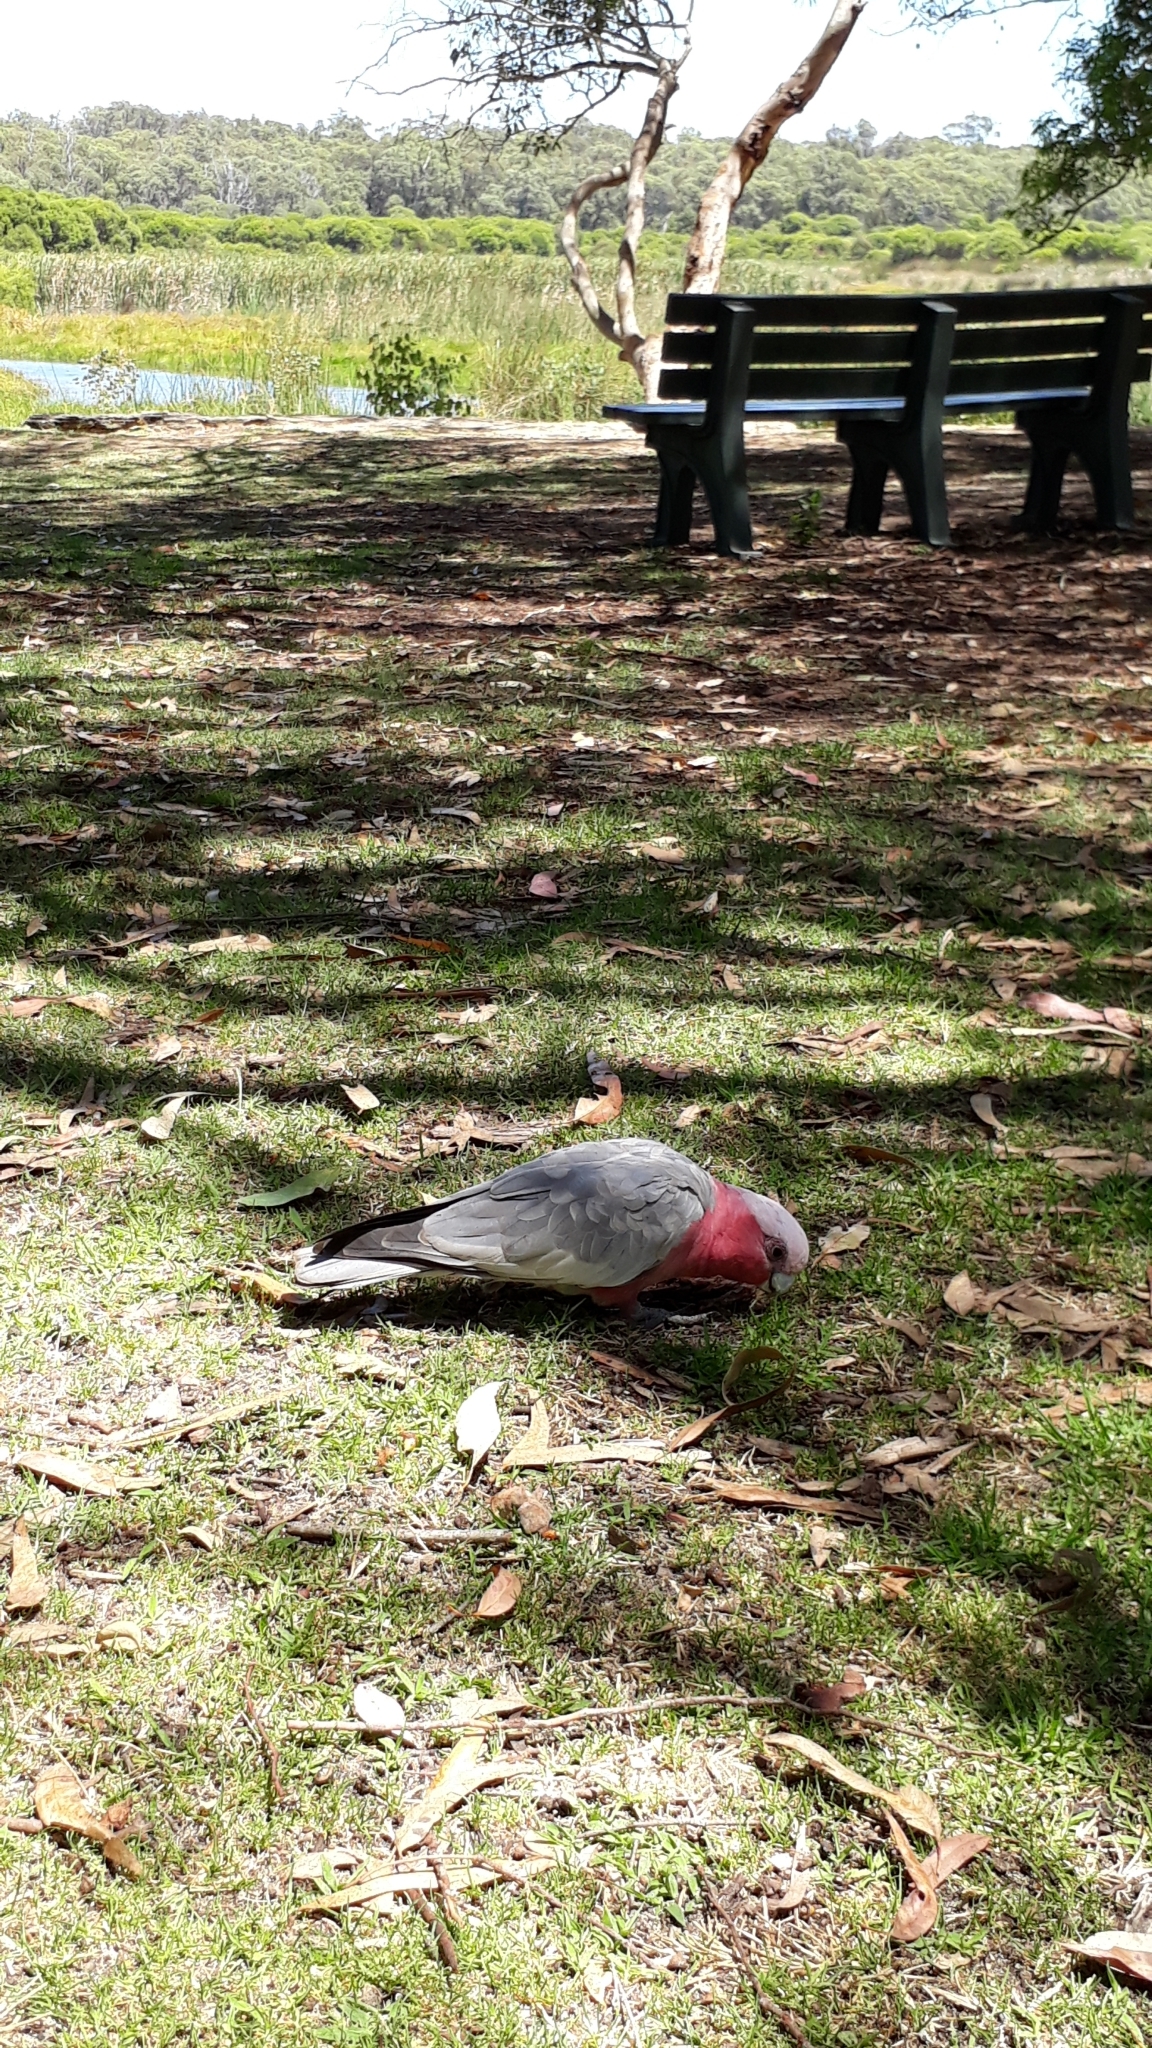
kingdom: Animalia
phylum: Chordata
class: Aves
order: Psittaciformes
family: Psittacidae
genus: Eolophus
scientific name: Eolophus roseicapilla
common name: Galah
